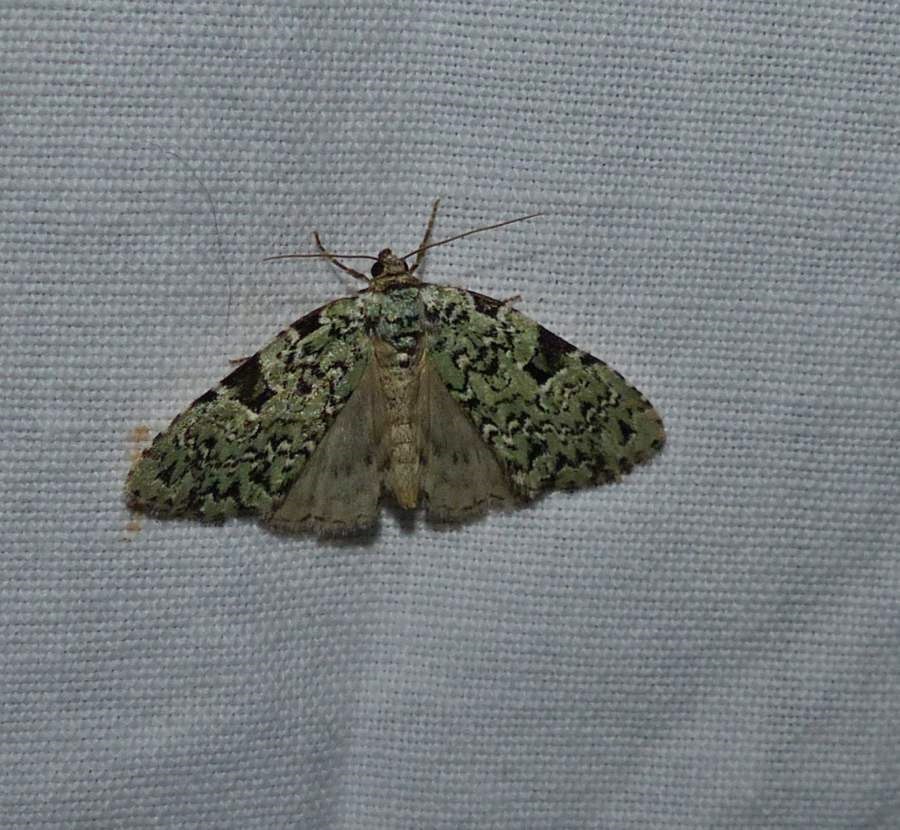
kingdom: Animalia
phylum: Arthropoda
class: Insecta
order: Lepidoptera
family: Noctuidae
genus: Leuconycta
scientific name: Leuconycta diphteroides
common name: Green leuconycta moth
